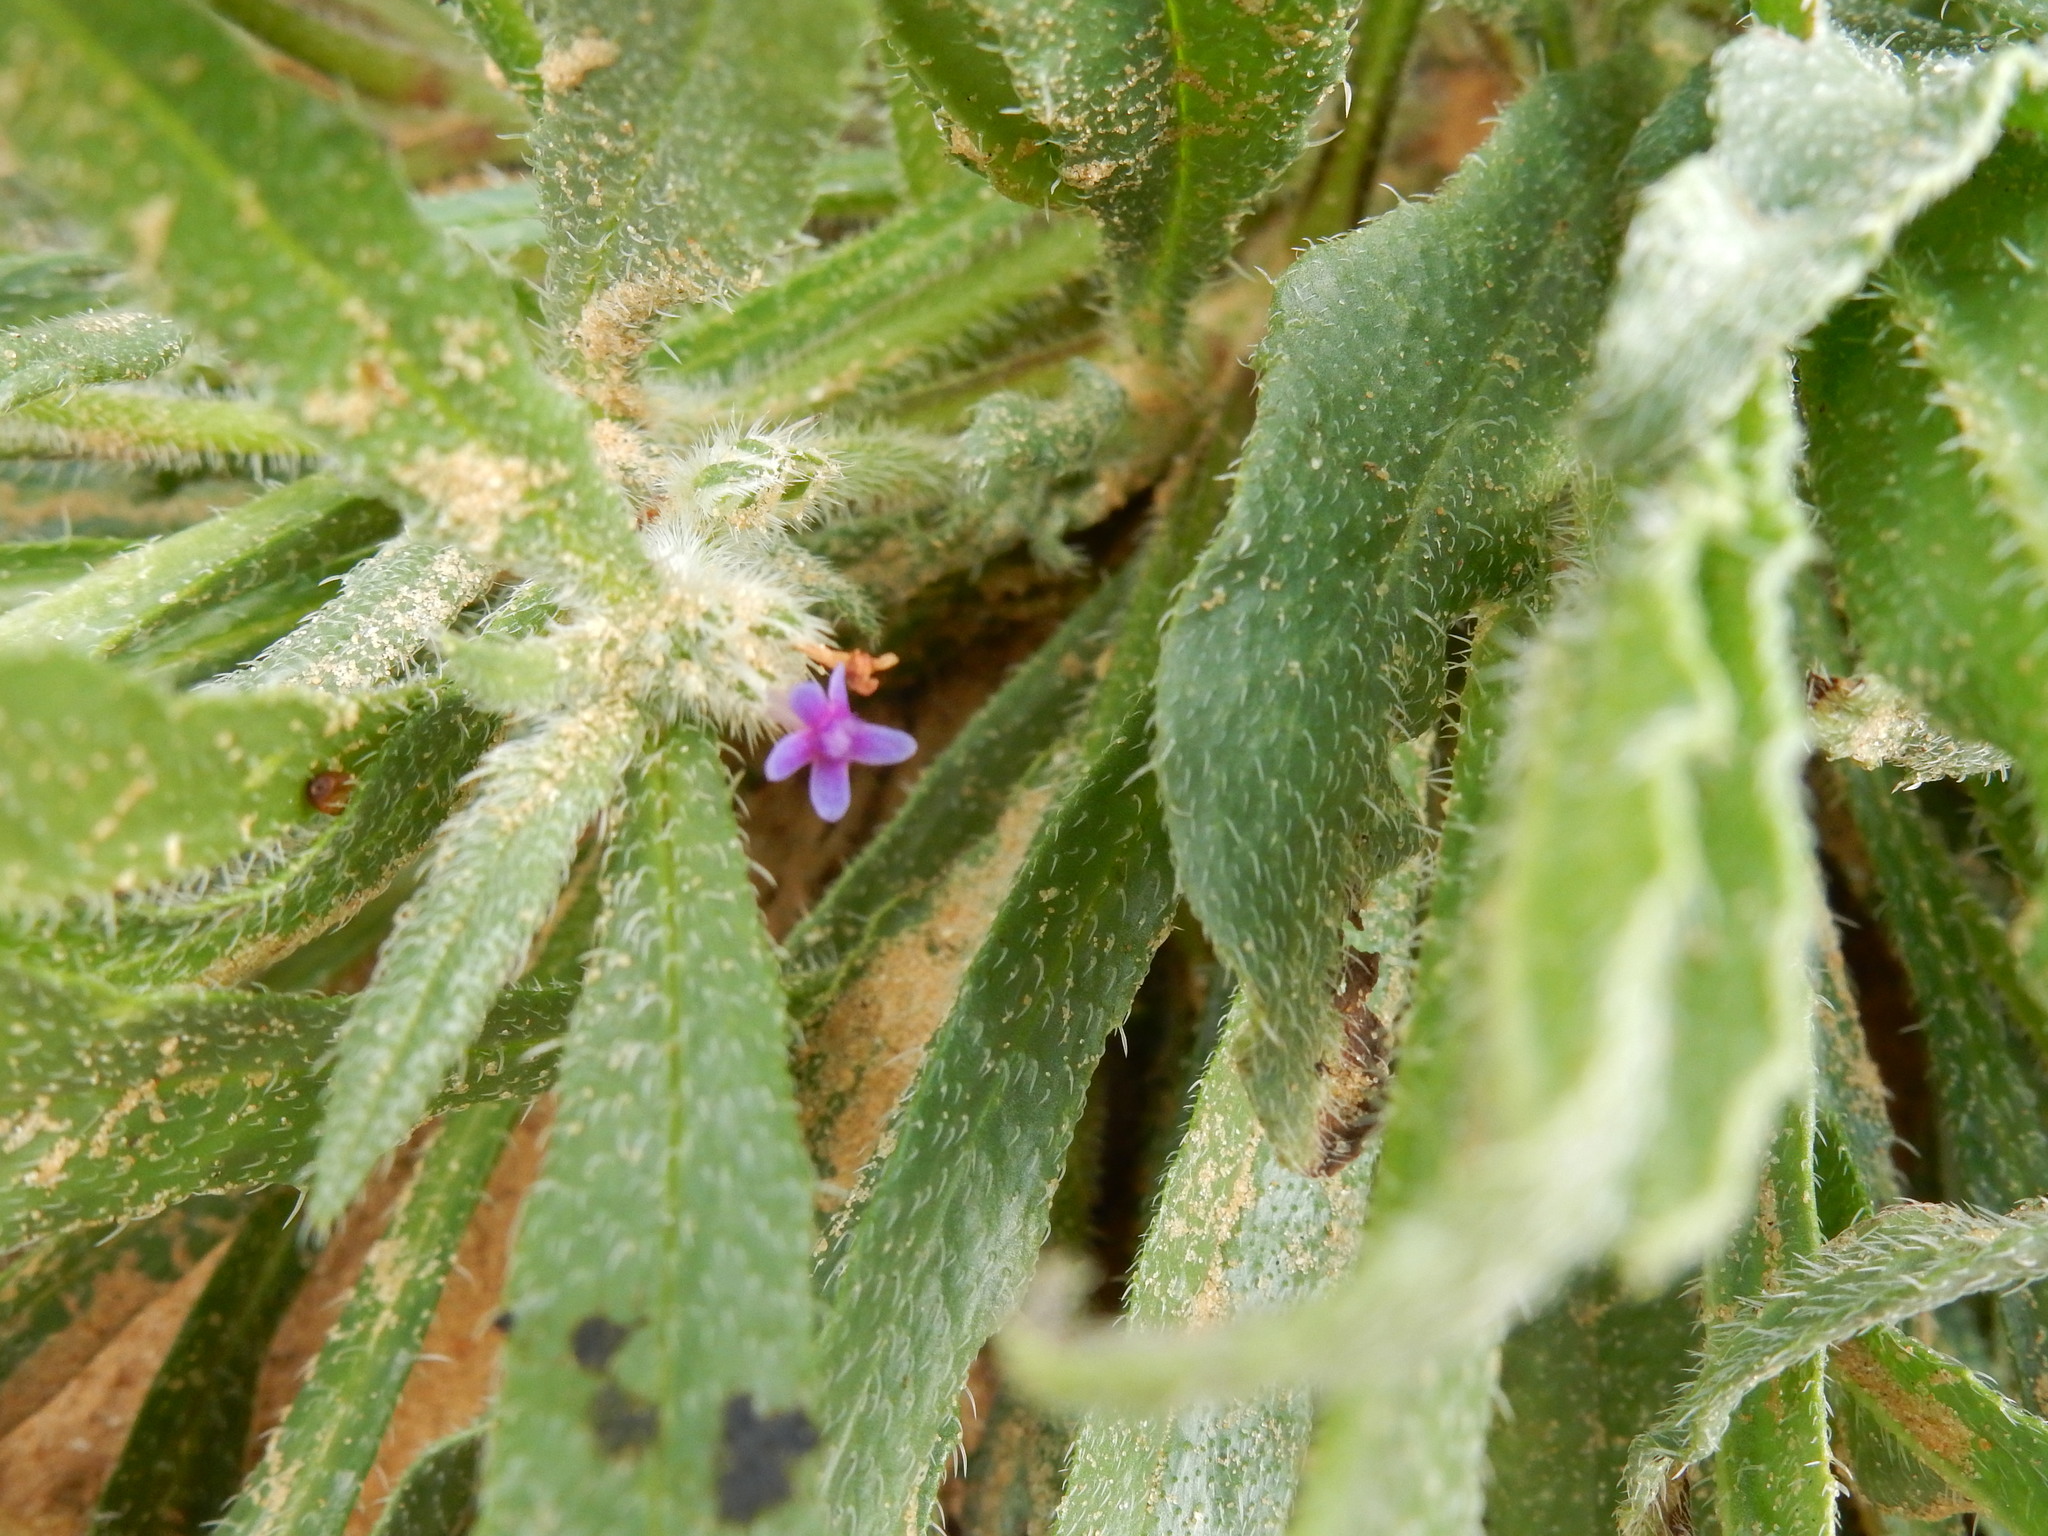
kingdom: Plantae
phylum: Tracheophyta
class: Magnoliopsida
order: Boraginales
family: Boraginaceae
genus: Hormuzakia
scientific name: Hormuzakia aggregata
